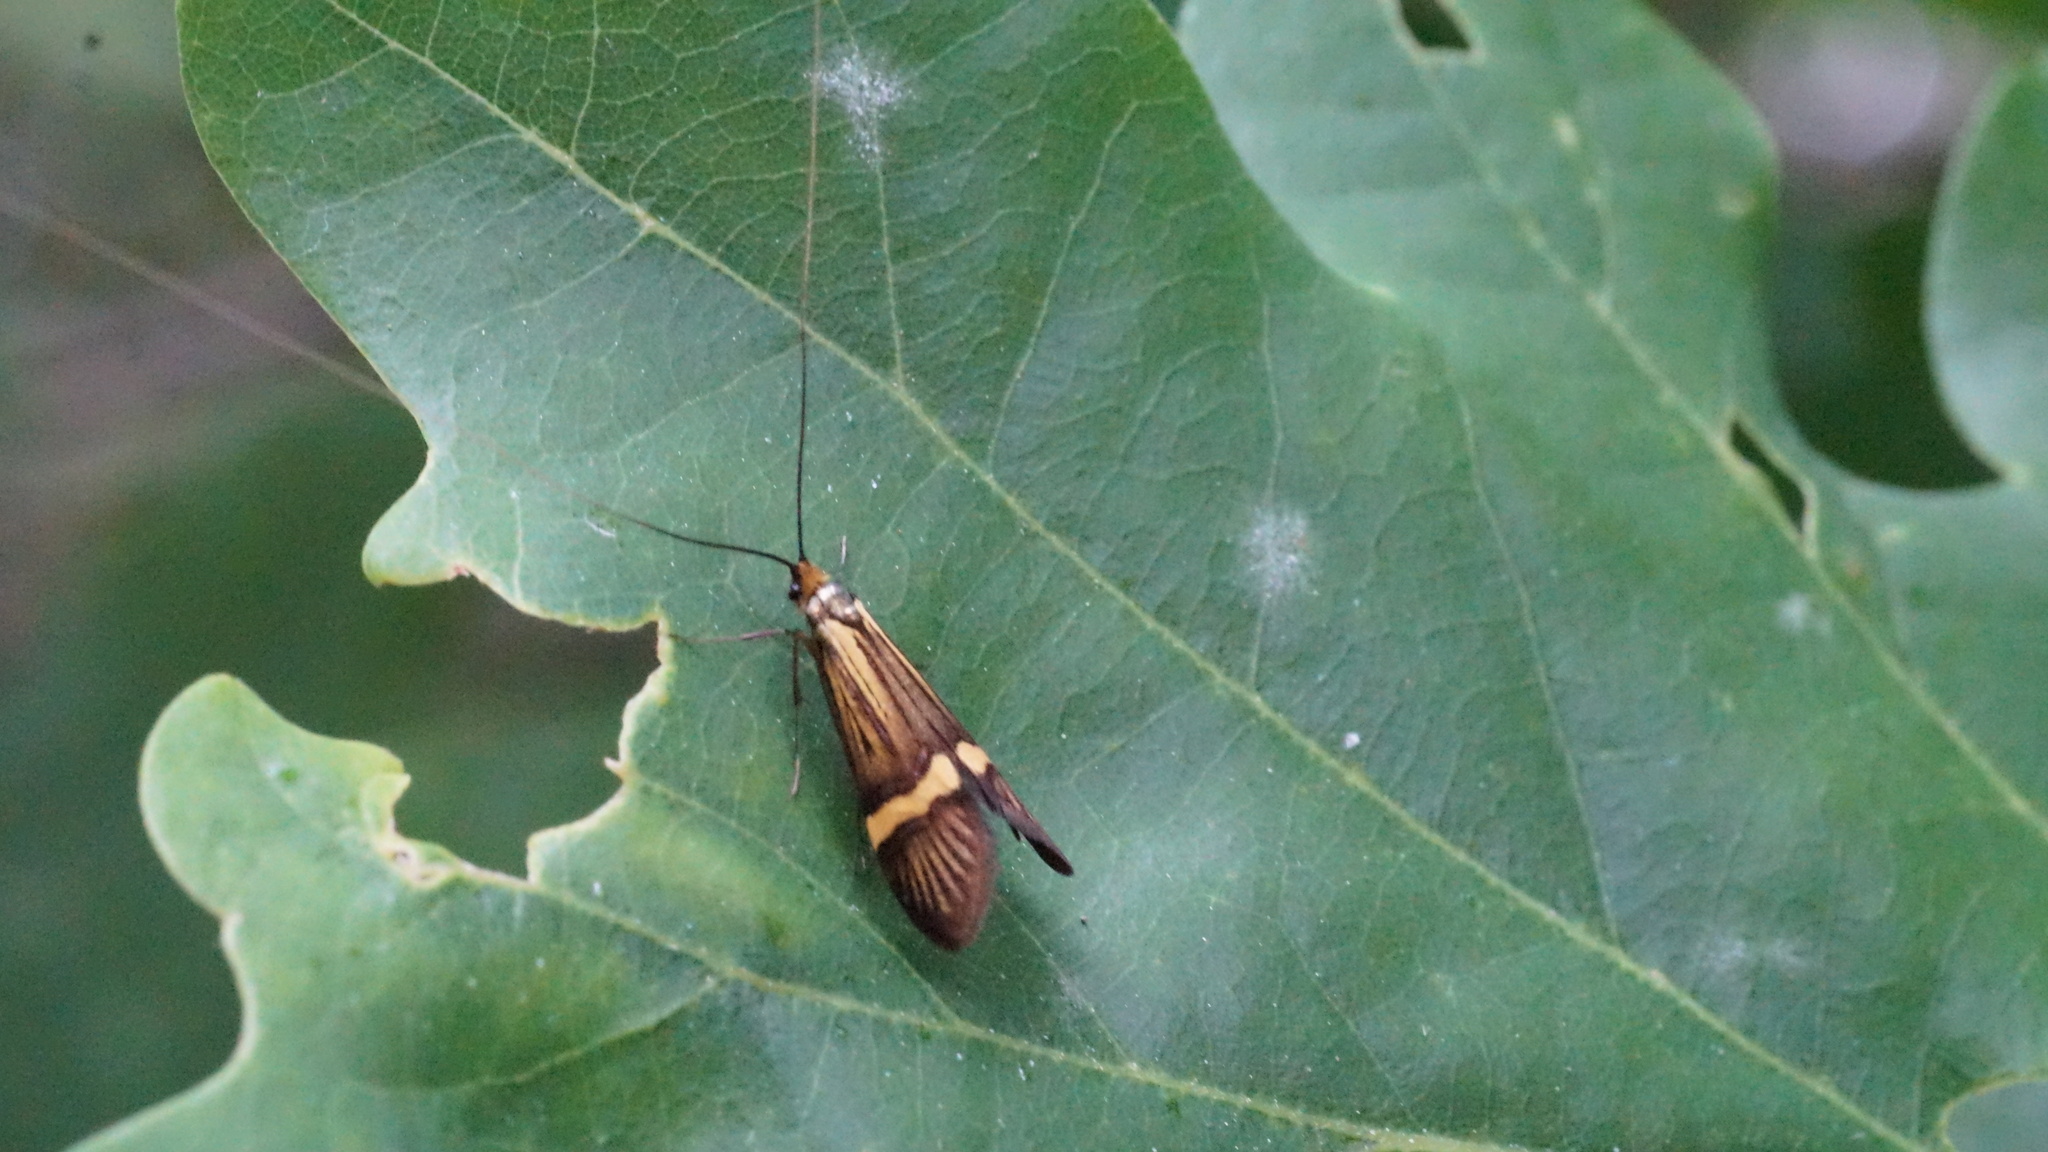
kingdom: Animalia
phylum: Arthropoda
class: Insecta
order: Lepidoptera
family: Adelidae
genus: Nemophora
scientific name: Nemophora degeerella
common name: Yellow-barred long-horn
